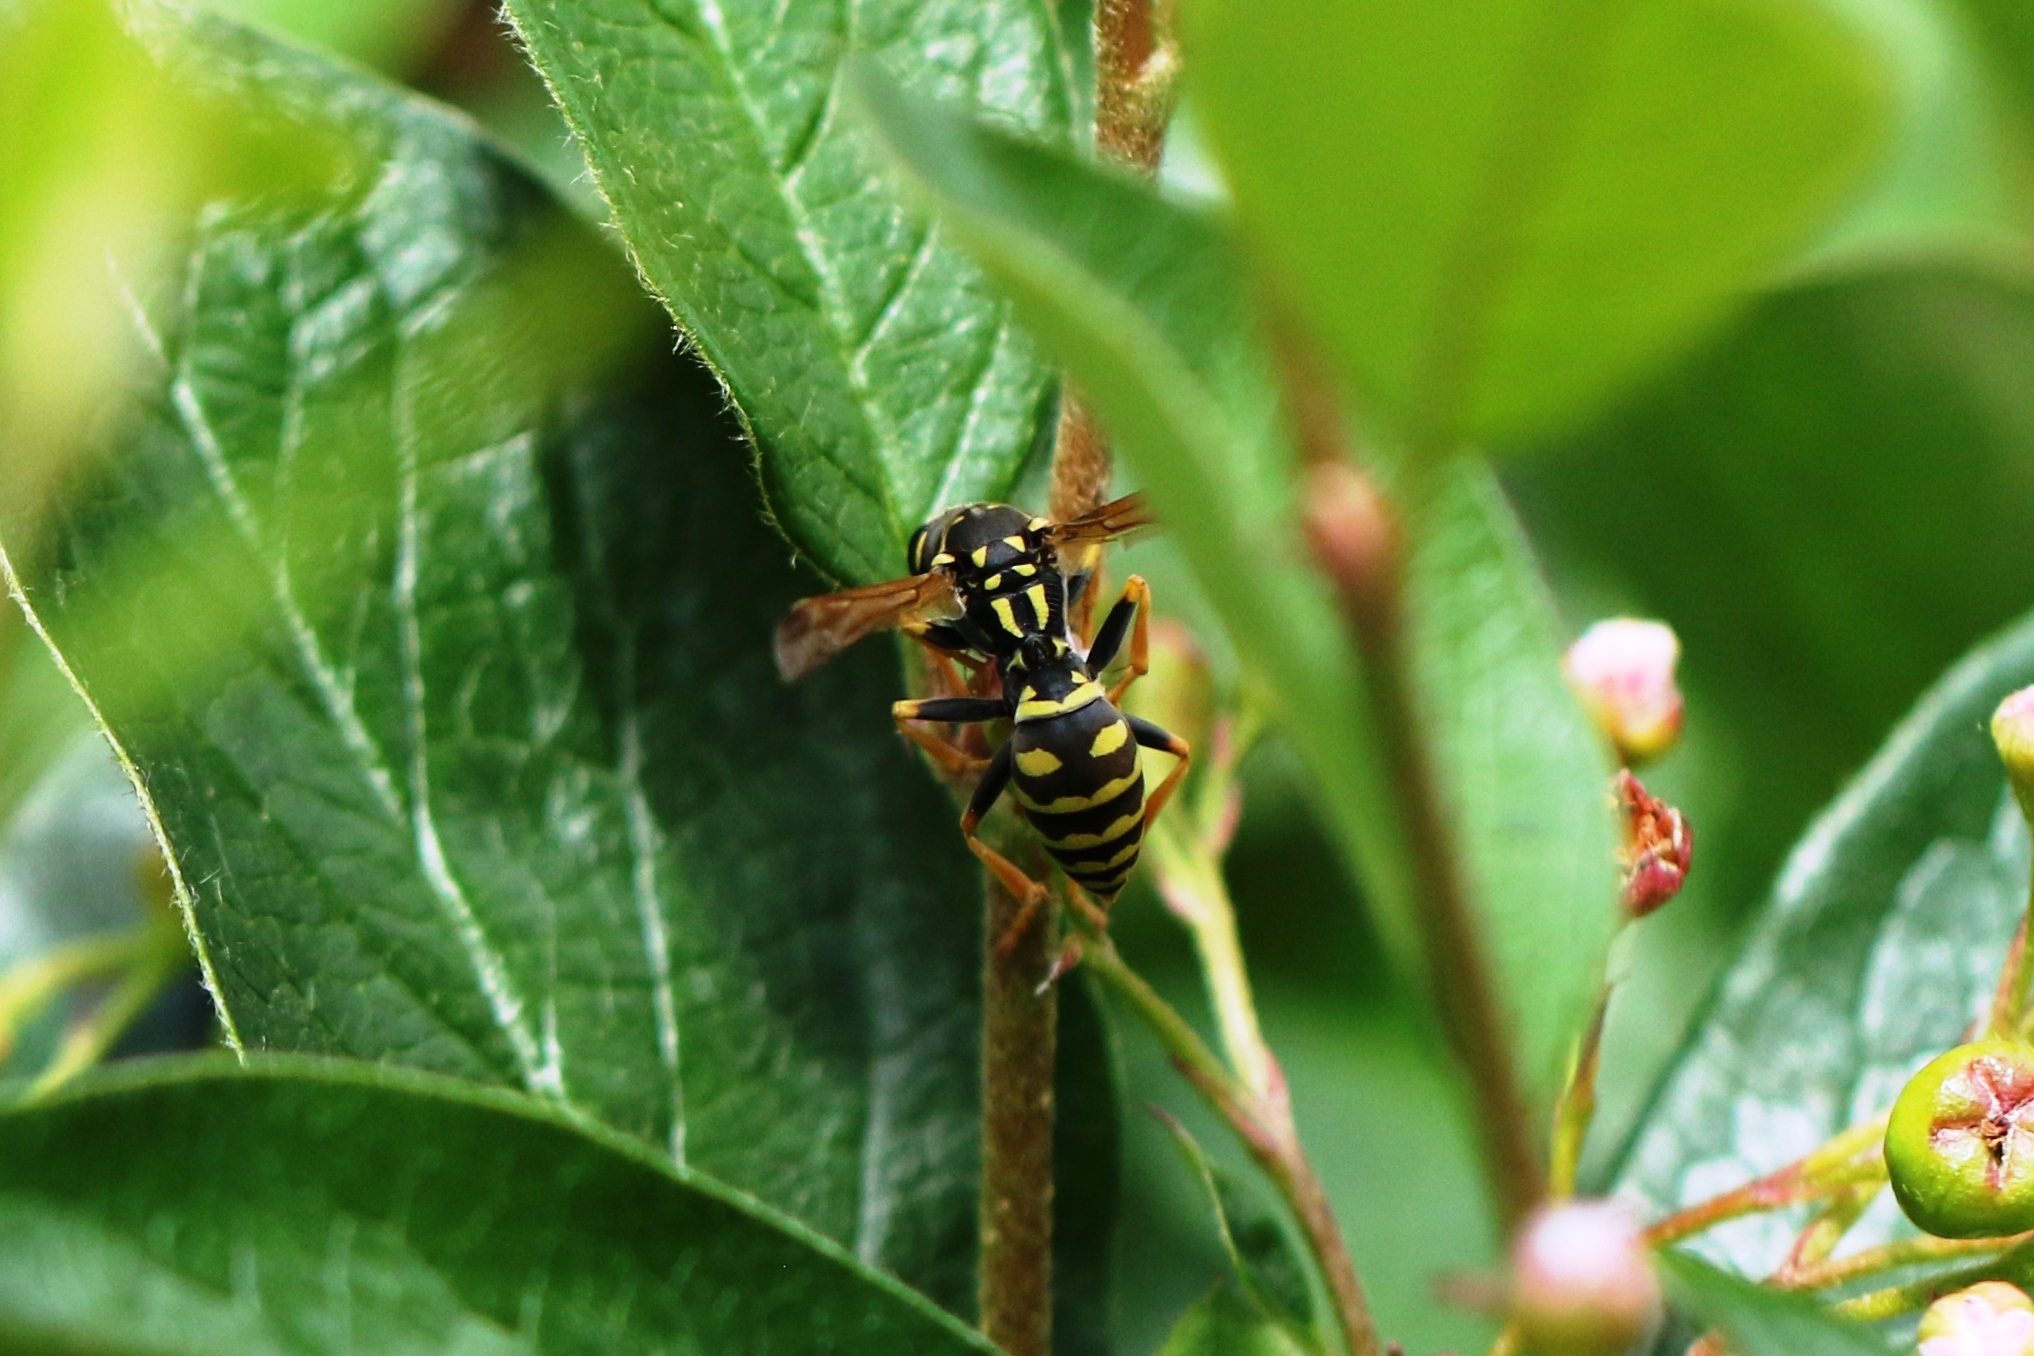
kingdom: Animalia
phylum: Arthropoda
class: Insecta
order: Hymenoptera
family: Eumenidae
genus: Polistes
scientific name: Polistes dominula
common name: Paper wasp
